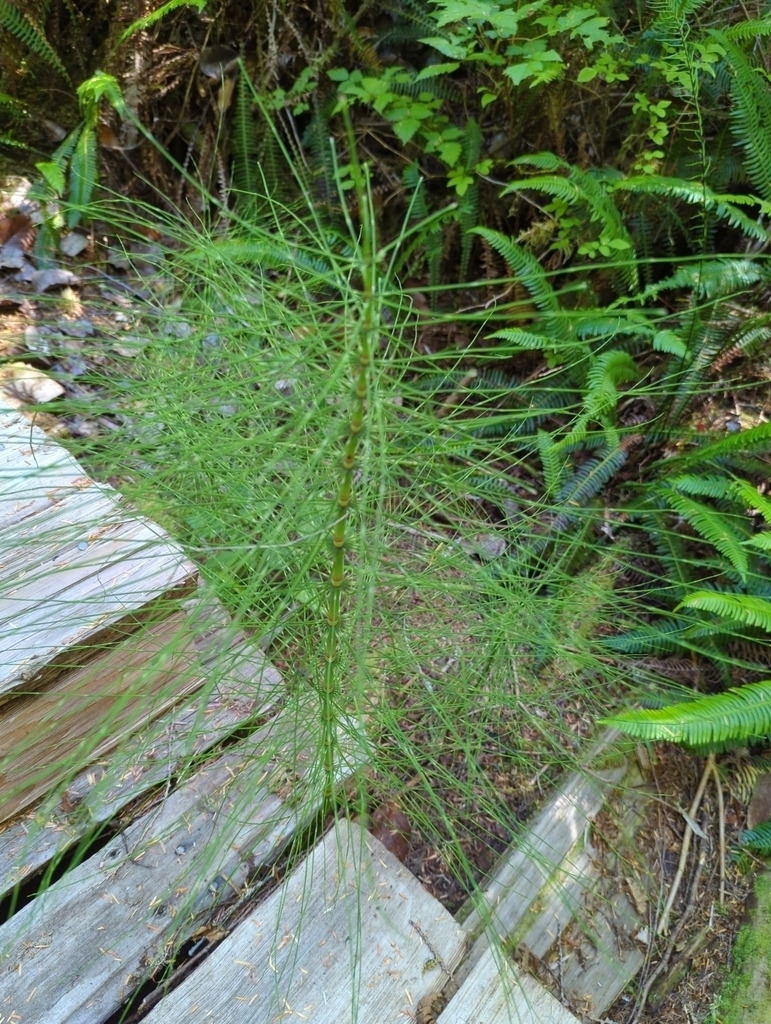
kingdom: Plantae
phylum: Tracheophyta
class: Polypodiopsida
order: Polypodiales
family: Blechnaceae
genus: Struthiopteris
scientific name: Struthiopteris spicant
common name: Deer fern
